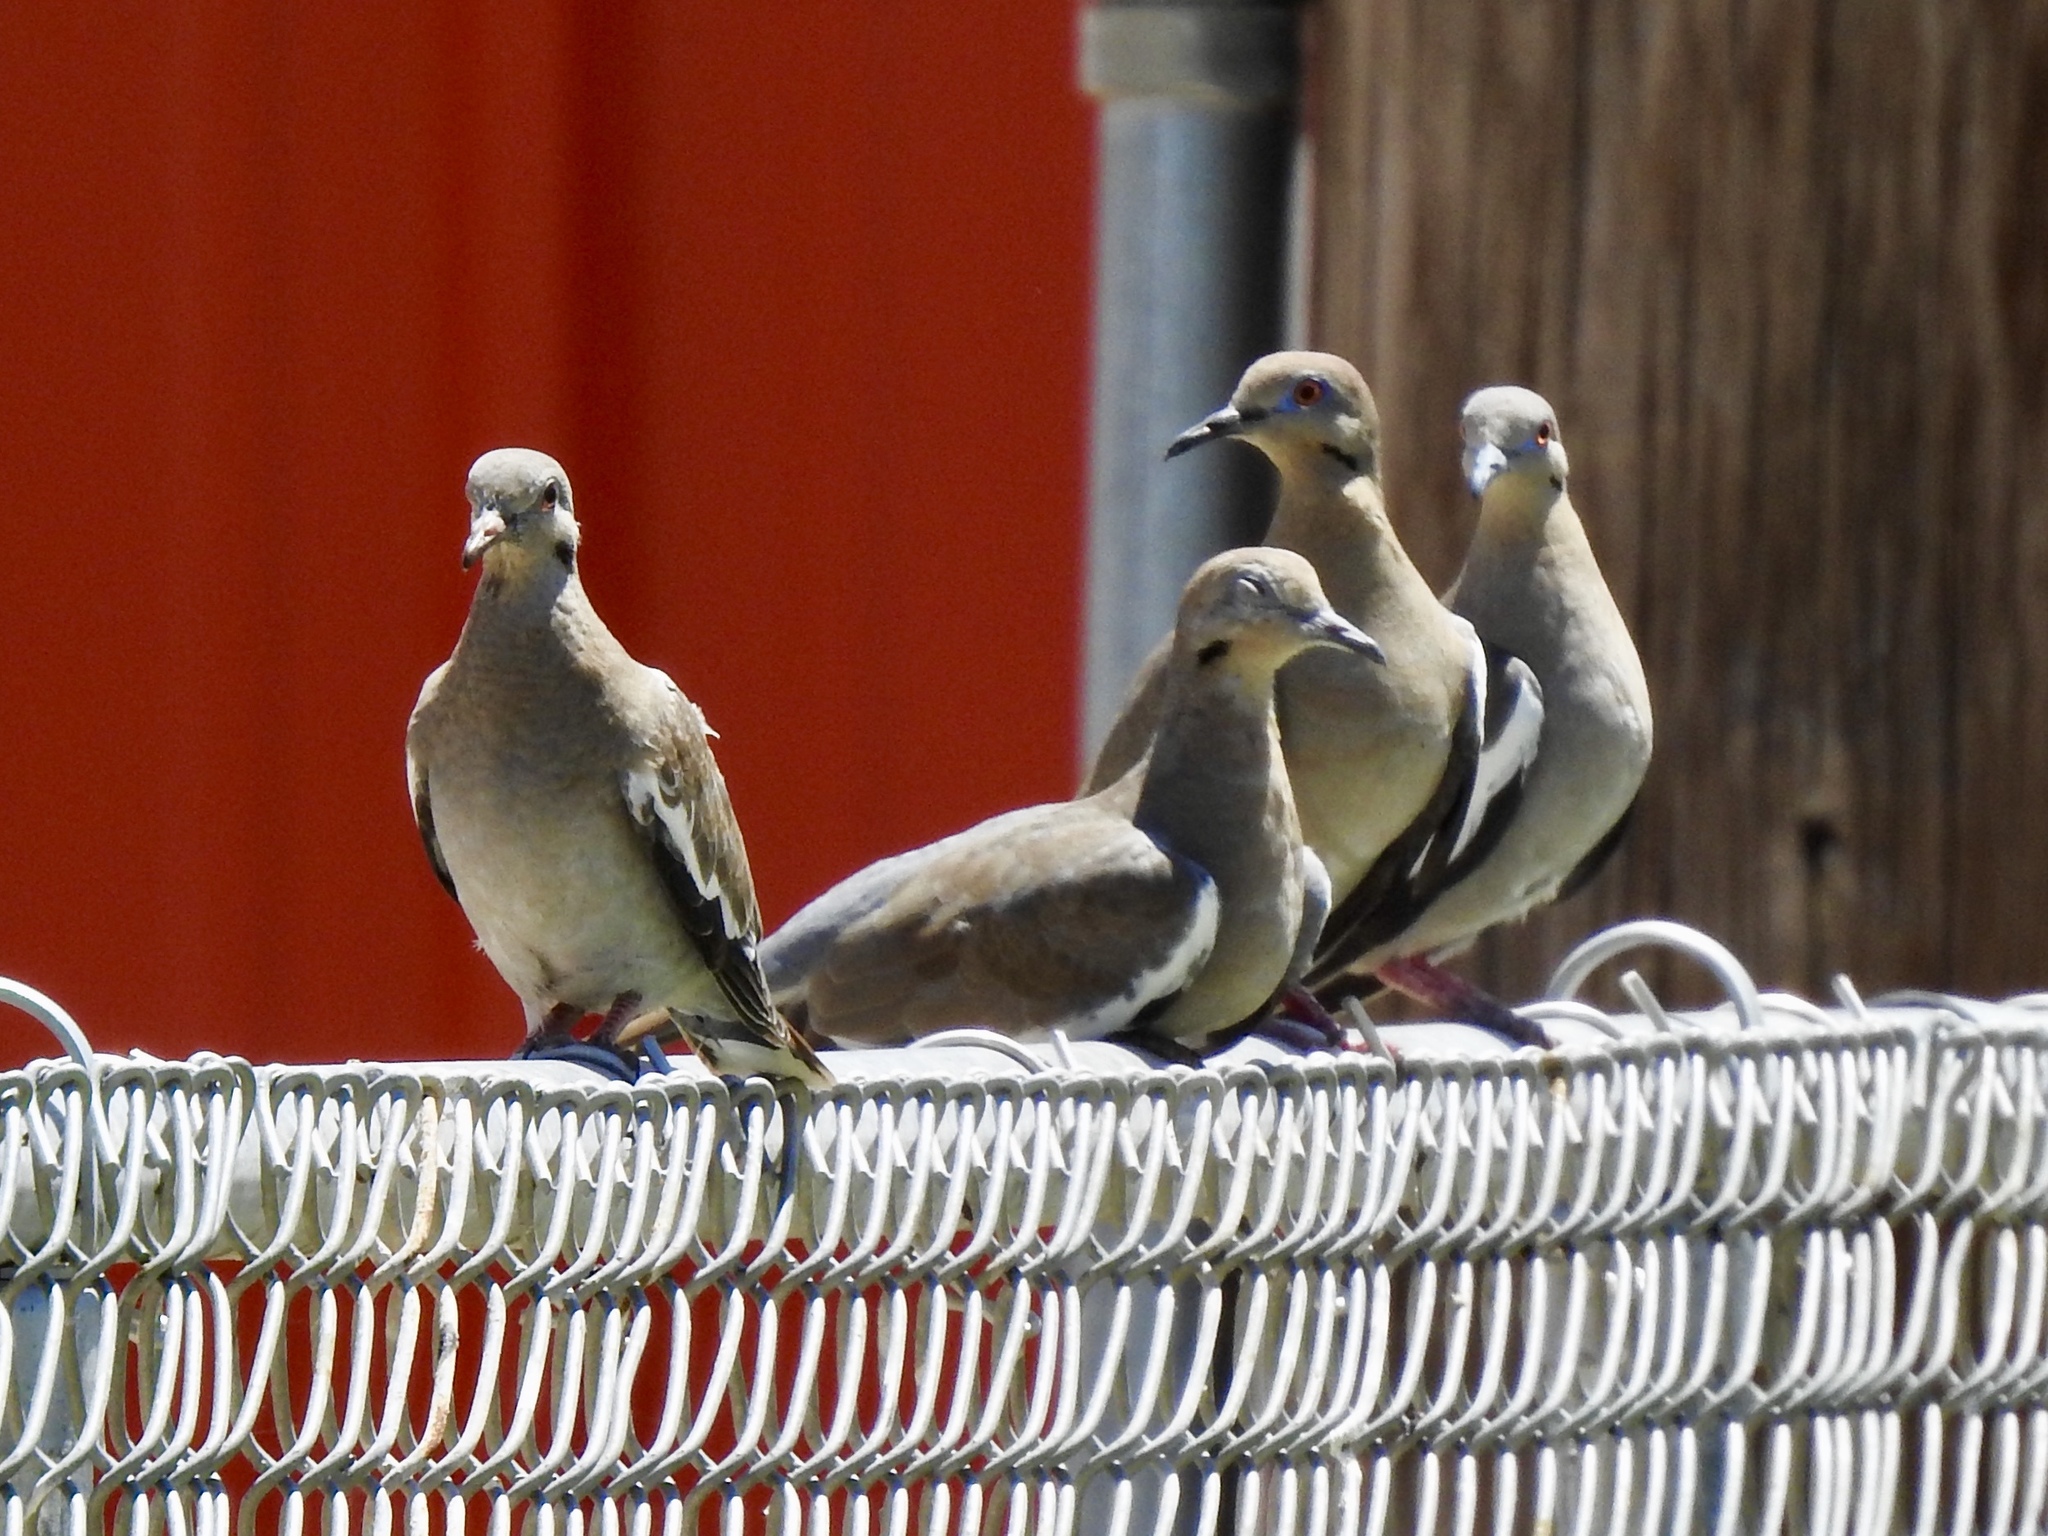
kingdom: Animalia
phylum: Chordata
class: Aves
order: Columbiformes
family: Columbidae
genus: Zenaida
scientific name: Zenaida asiatica
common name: White-winged dove
